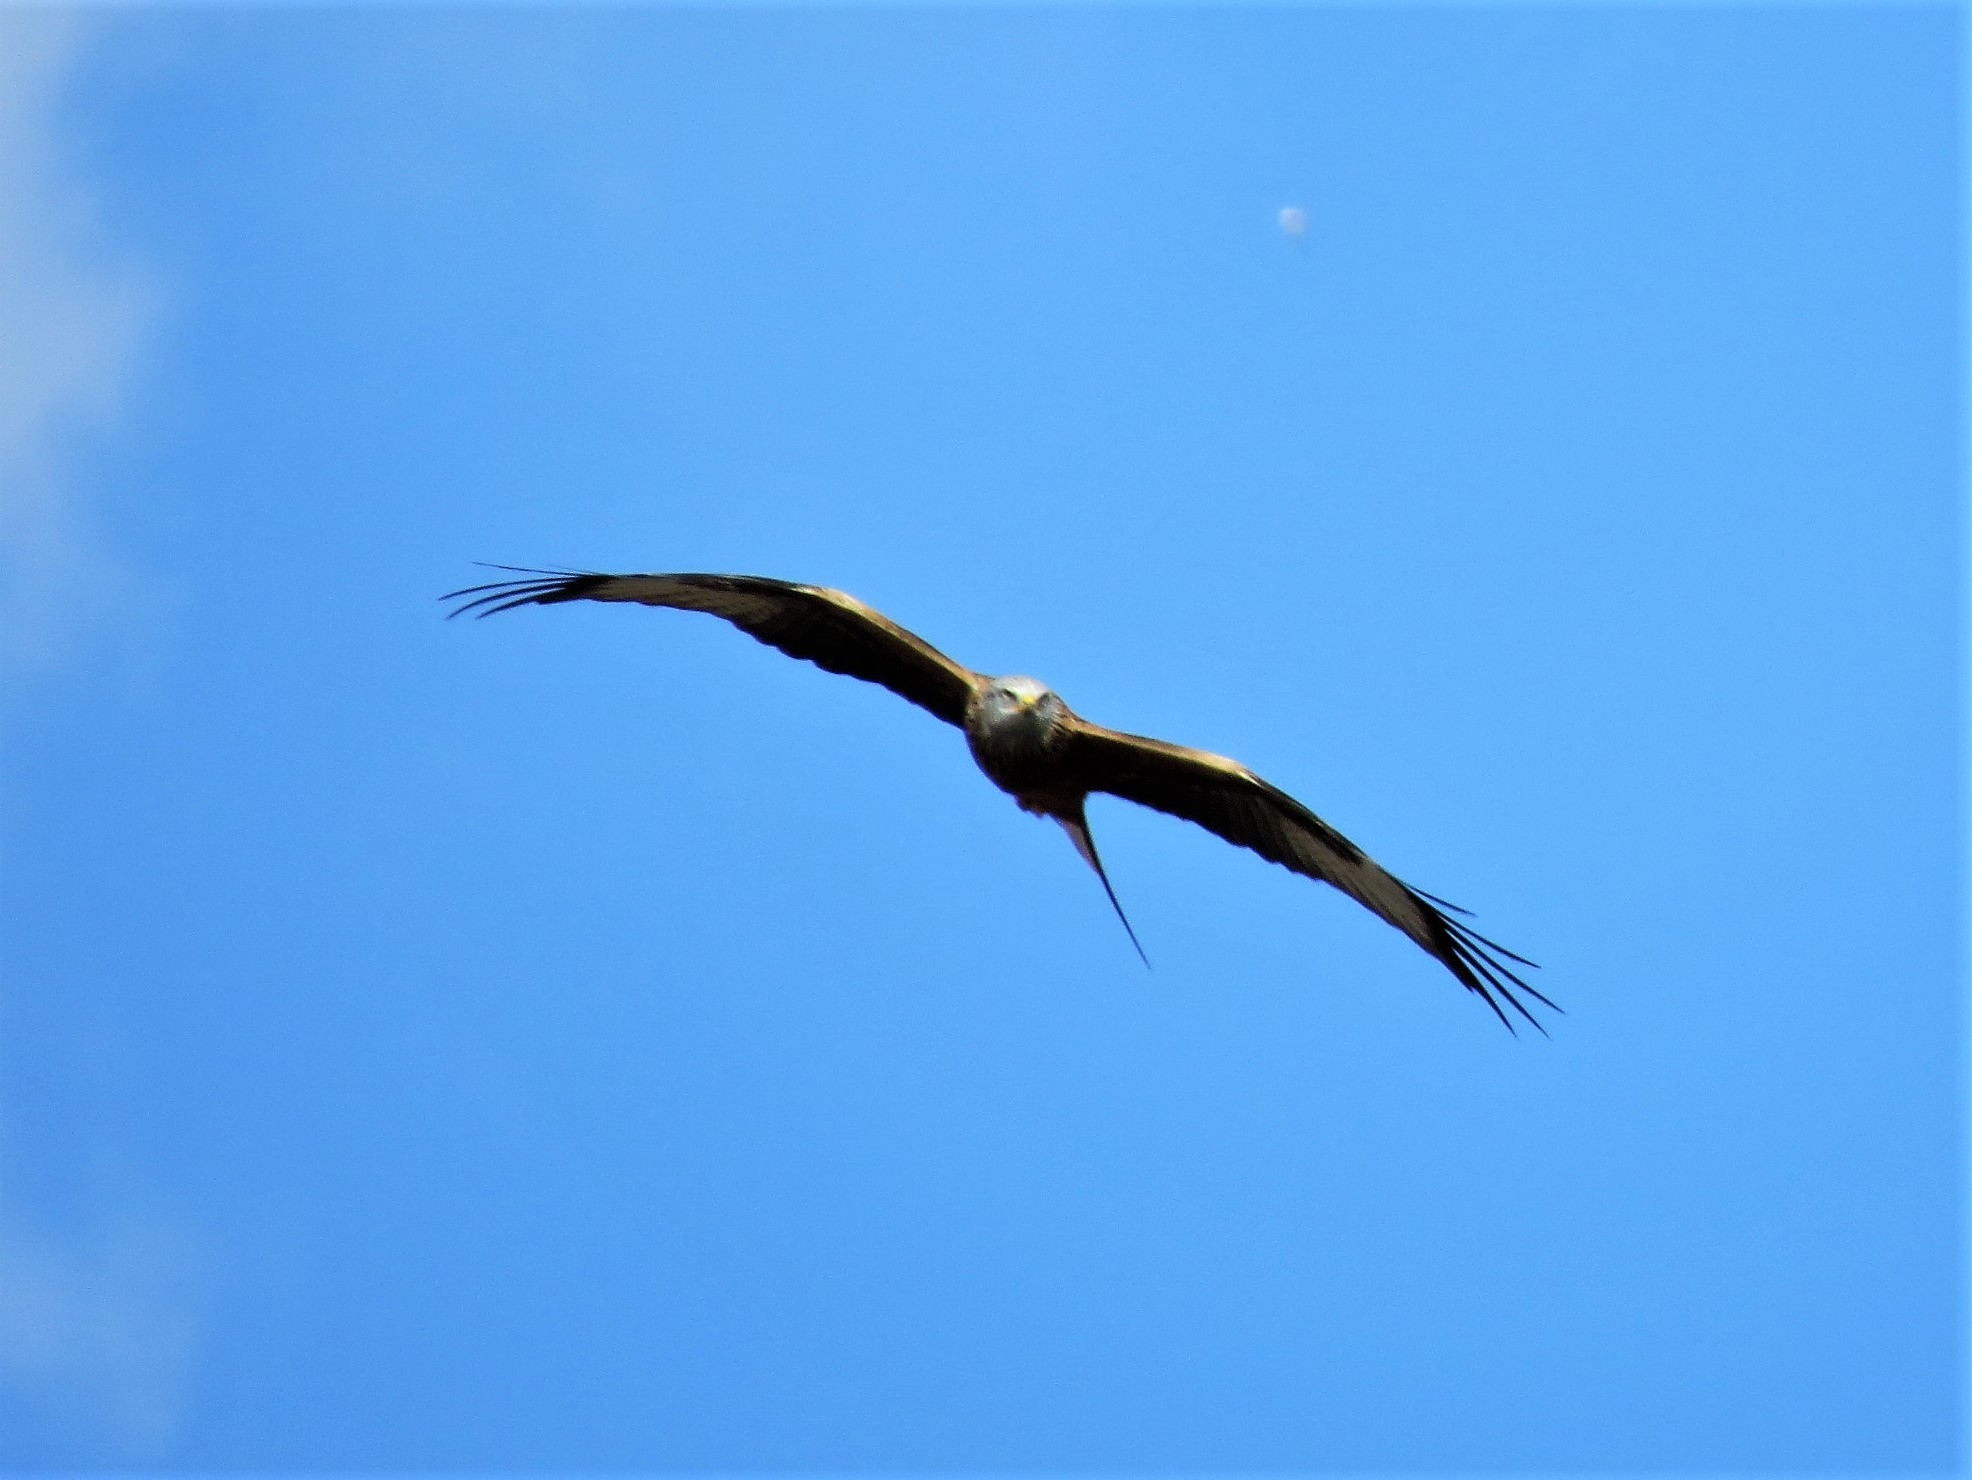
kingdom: Animalia
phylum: Chordata
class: Aves
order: Accipitriformes
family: Accipitridae
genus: Milvus
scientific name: Milvus milvus
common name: Red kite
